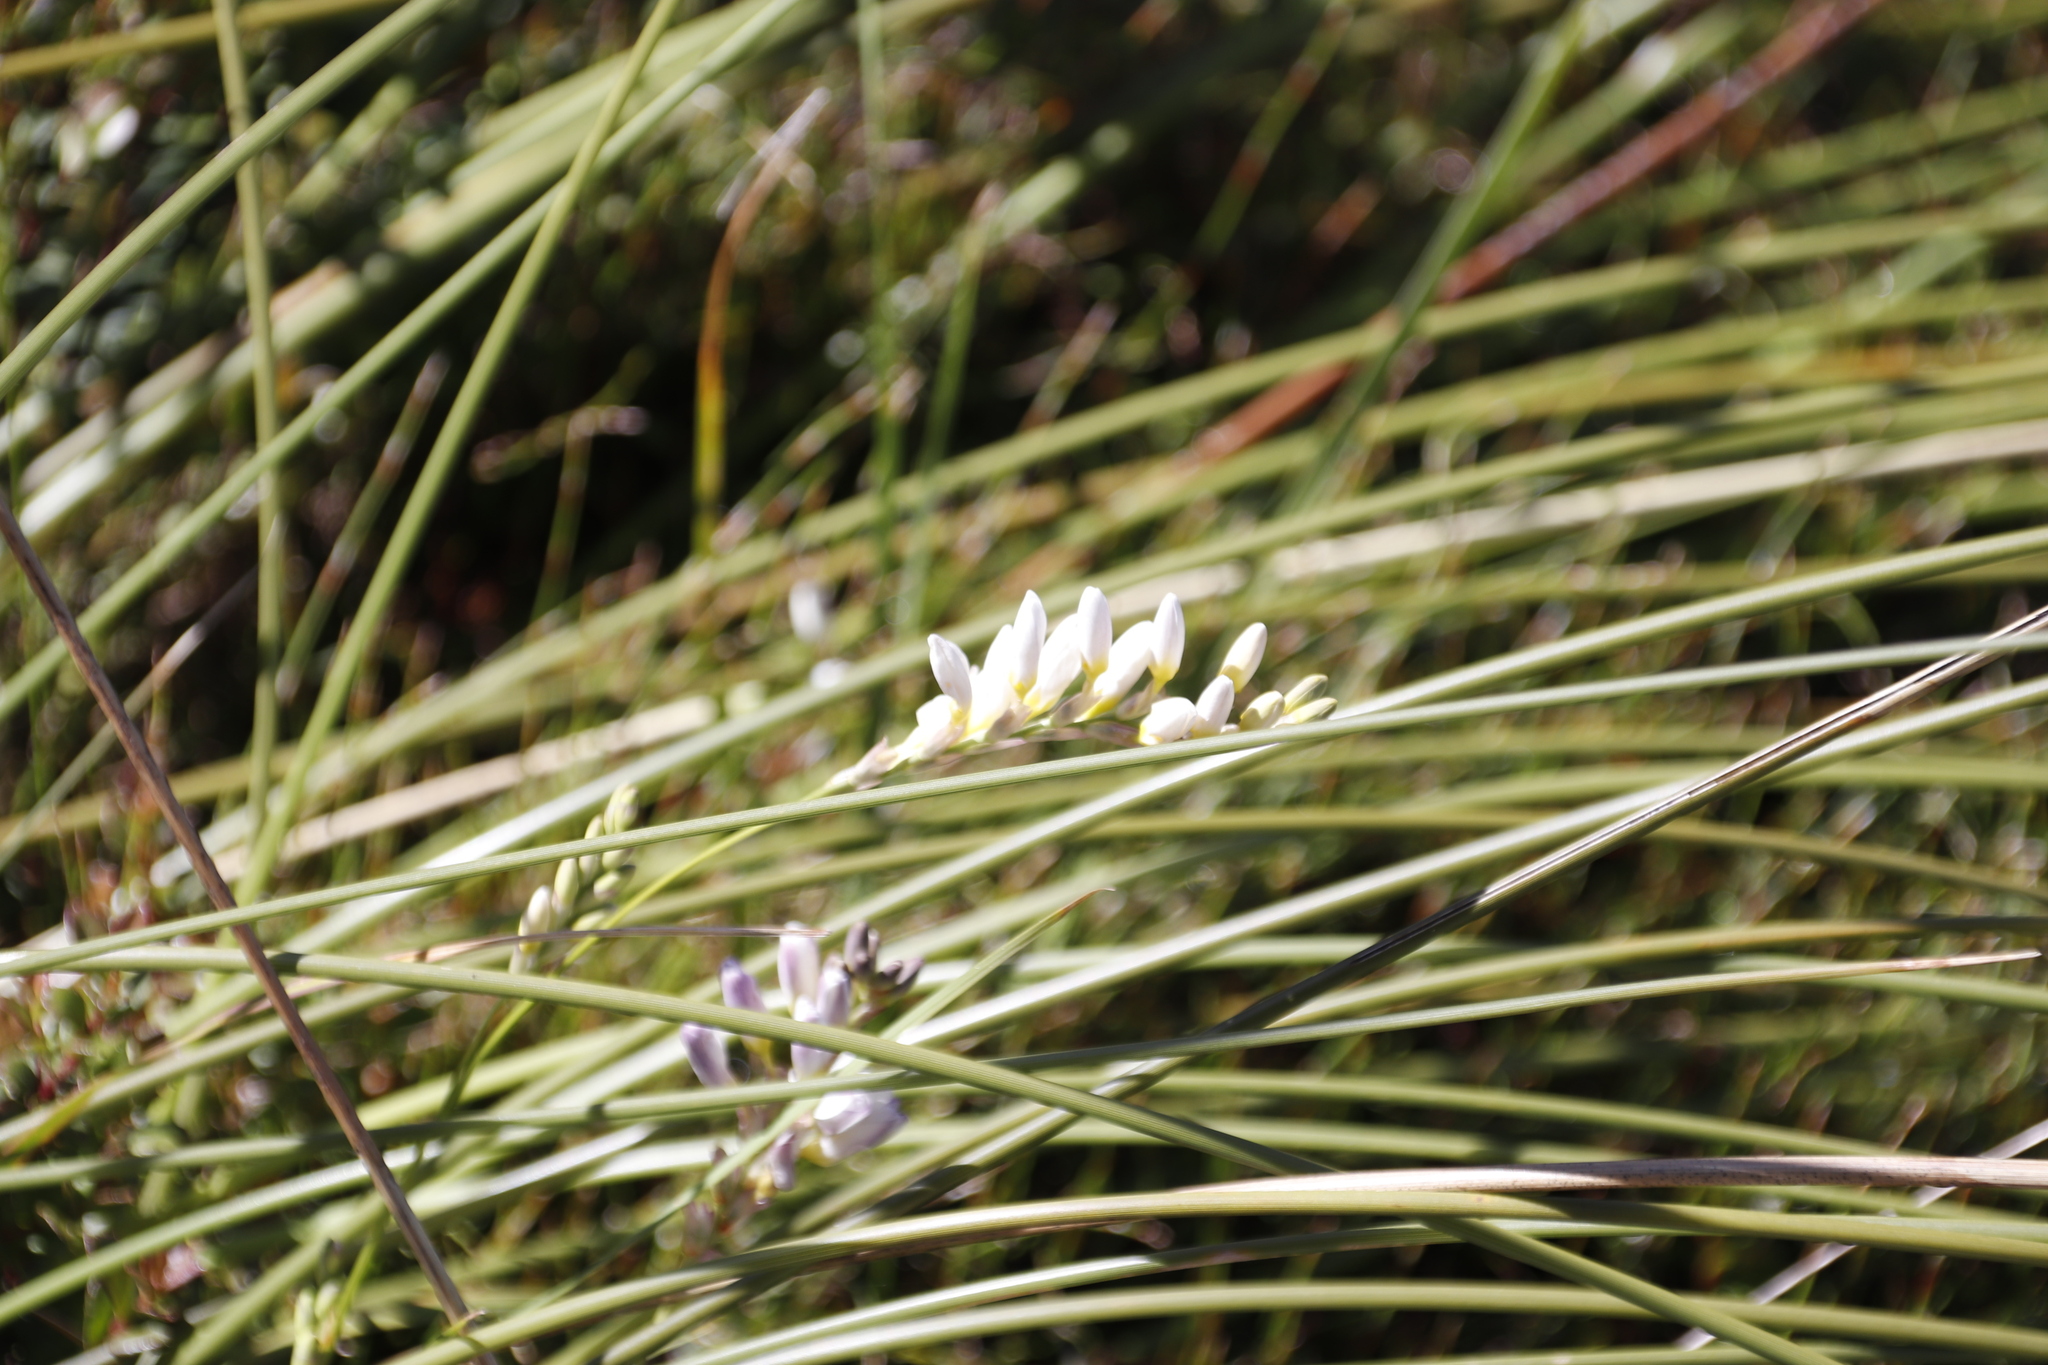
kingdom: Plantae
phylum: Tracheophyta
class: Liliopsida
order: Asparagales
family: Iridaceae
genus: Bobartia
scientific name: Bobartia indica
